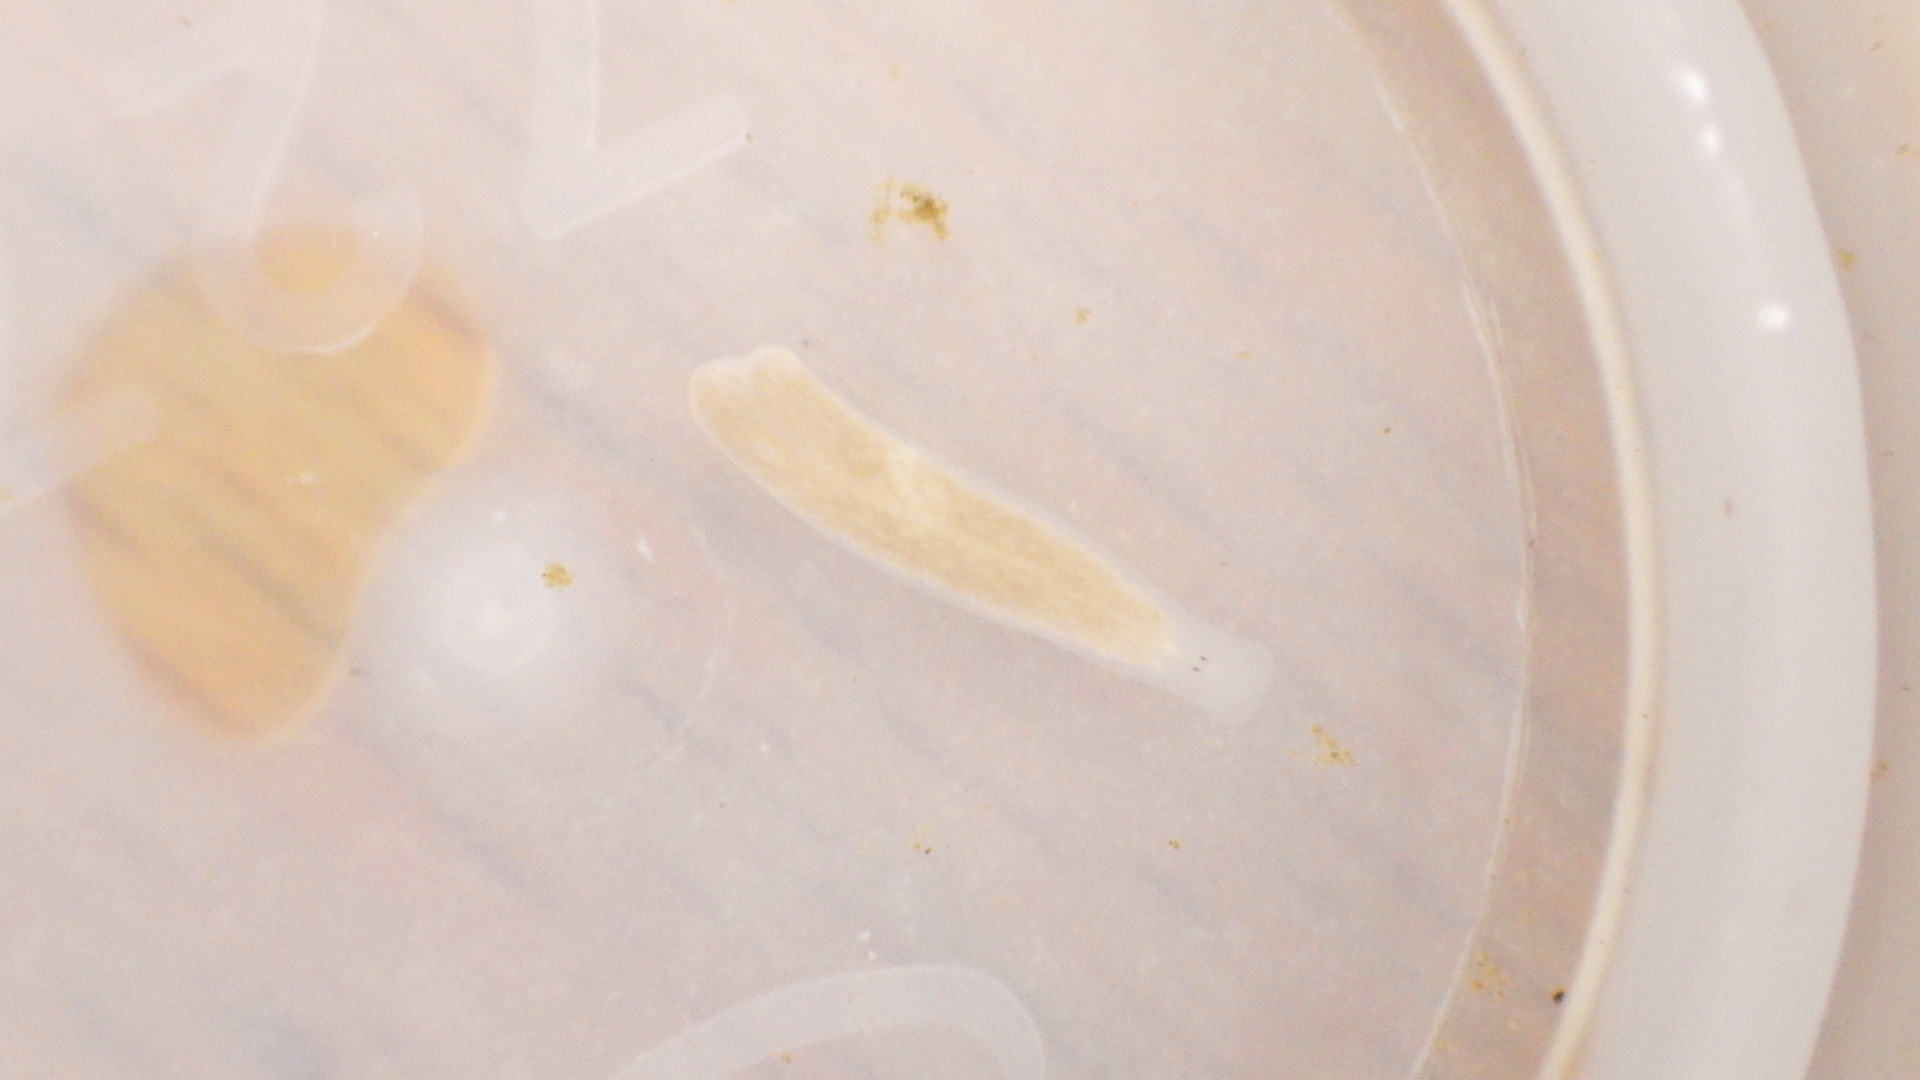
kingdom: Animalia
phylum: Platyhelminthes
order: Tricladida
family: Planariidae
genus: Phagocata
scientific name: Phagocata morgani
